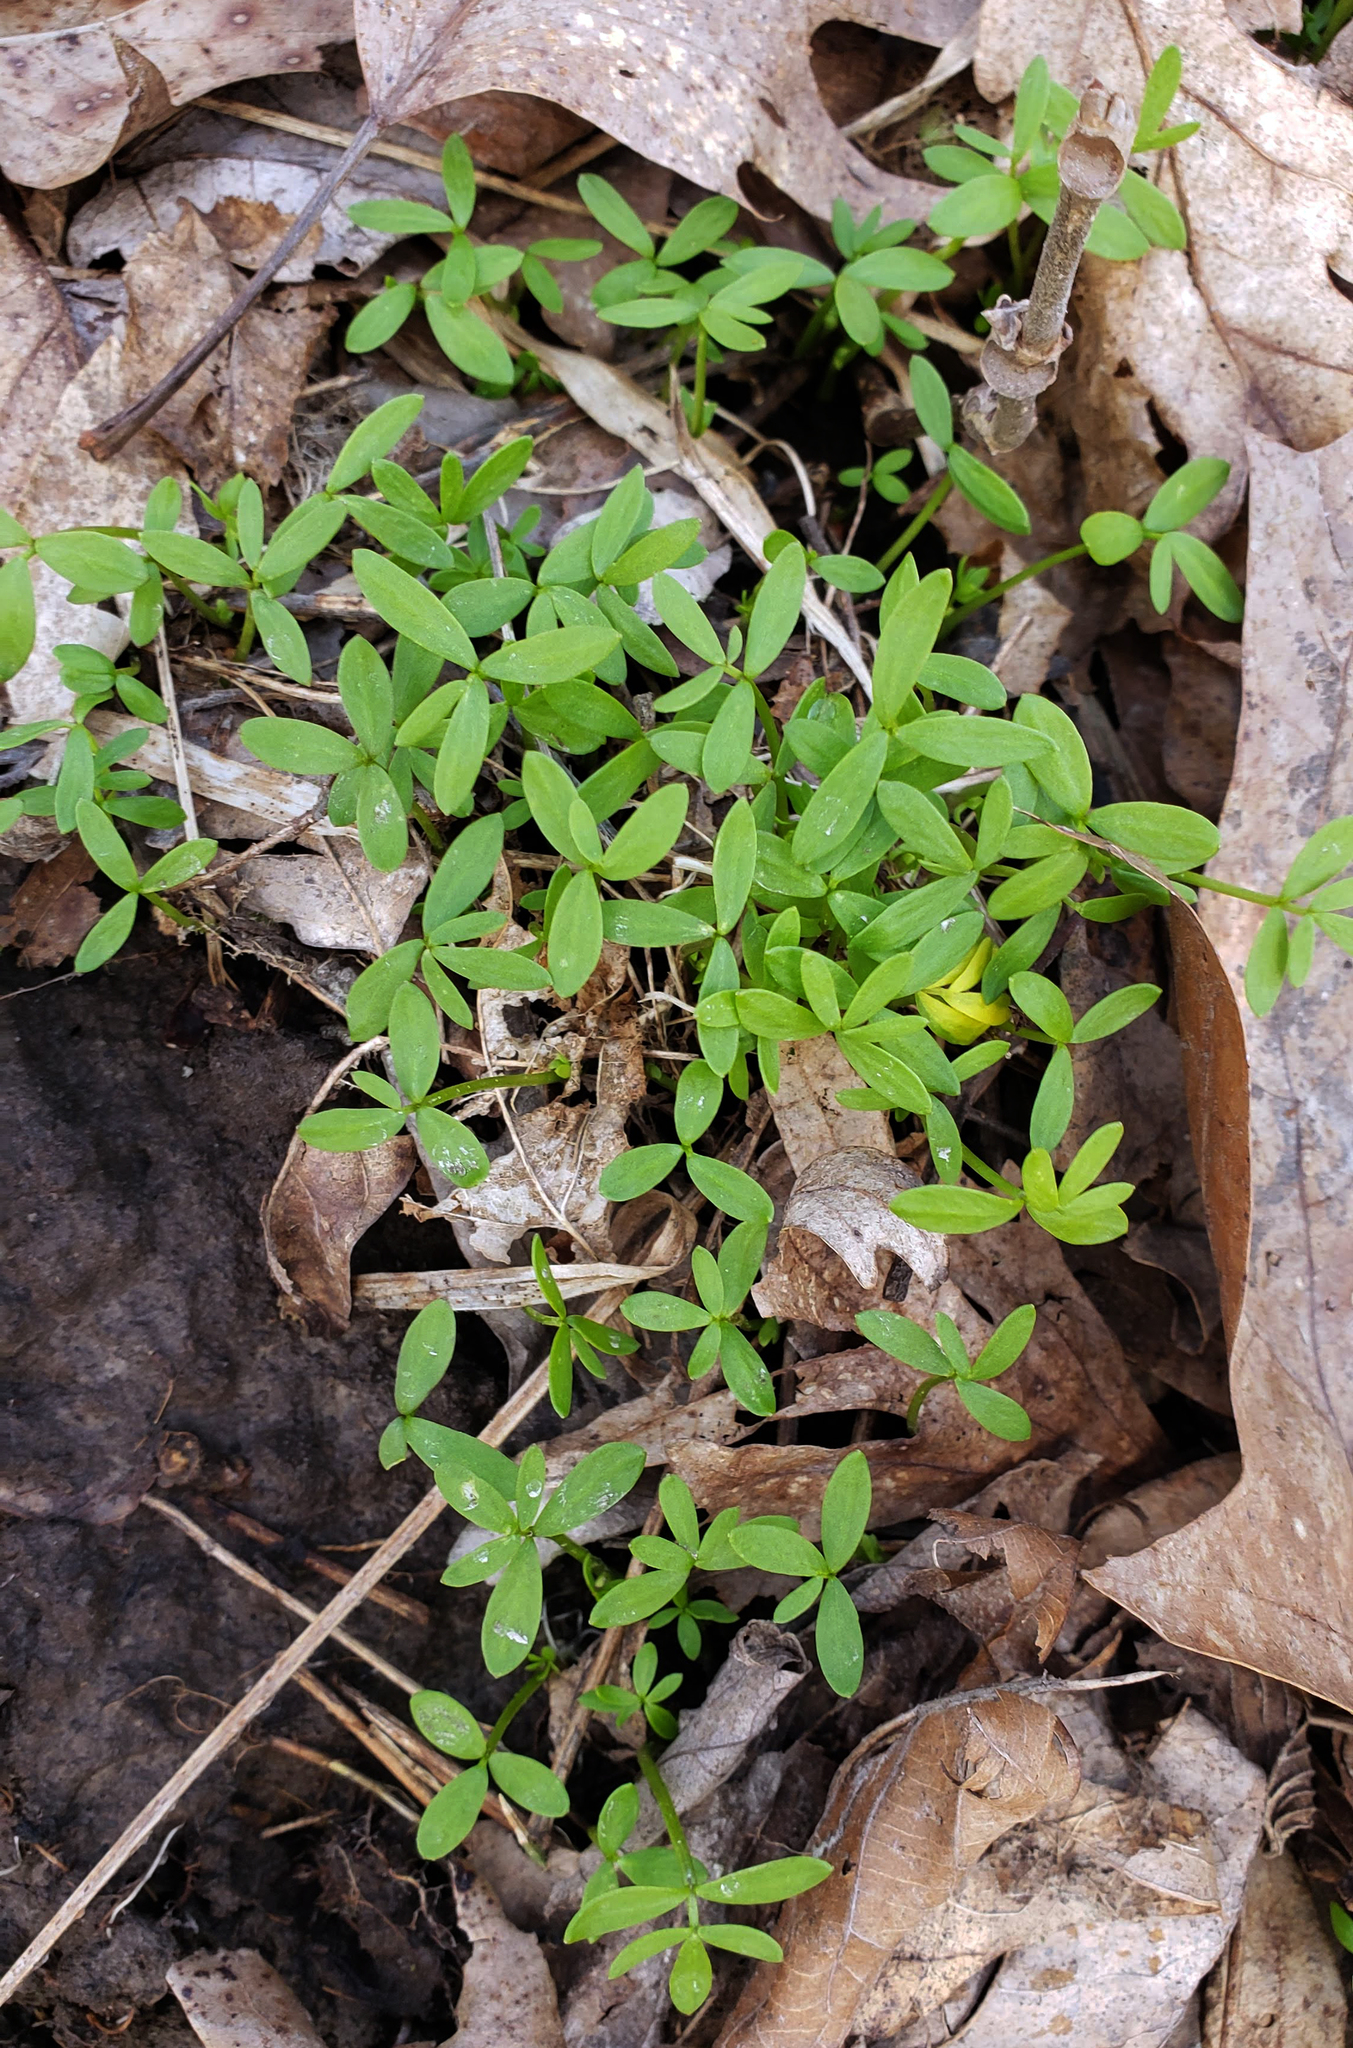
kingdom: Plantae
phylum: Tracheophyta
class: Magnoliopsida
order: Brassicales
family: Limnanthaceae
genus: Floerkea
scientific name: Floerkea proserpinacoides
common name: False mermaid
